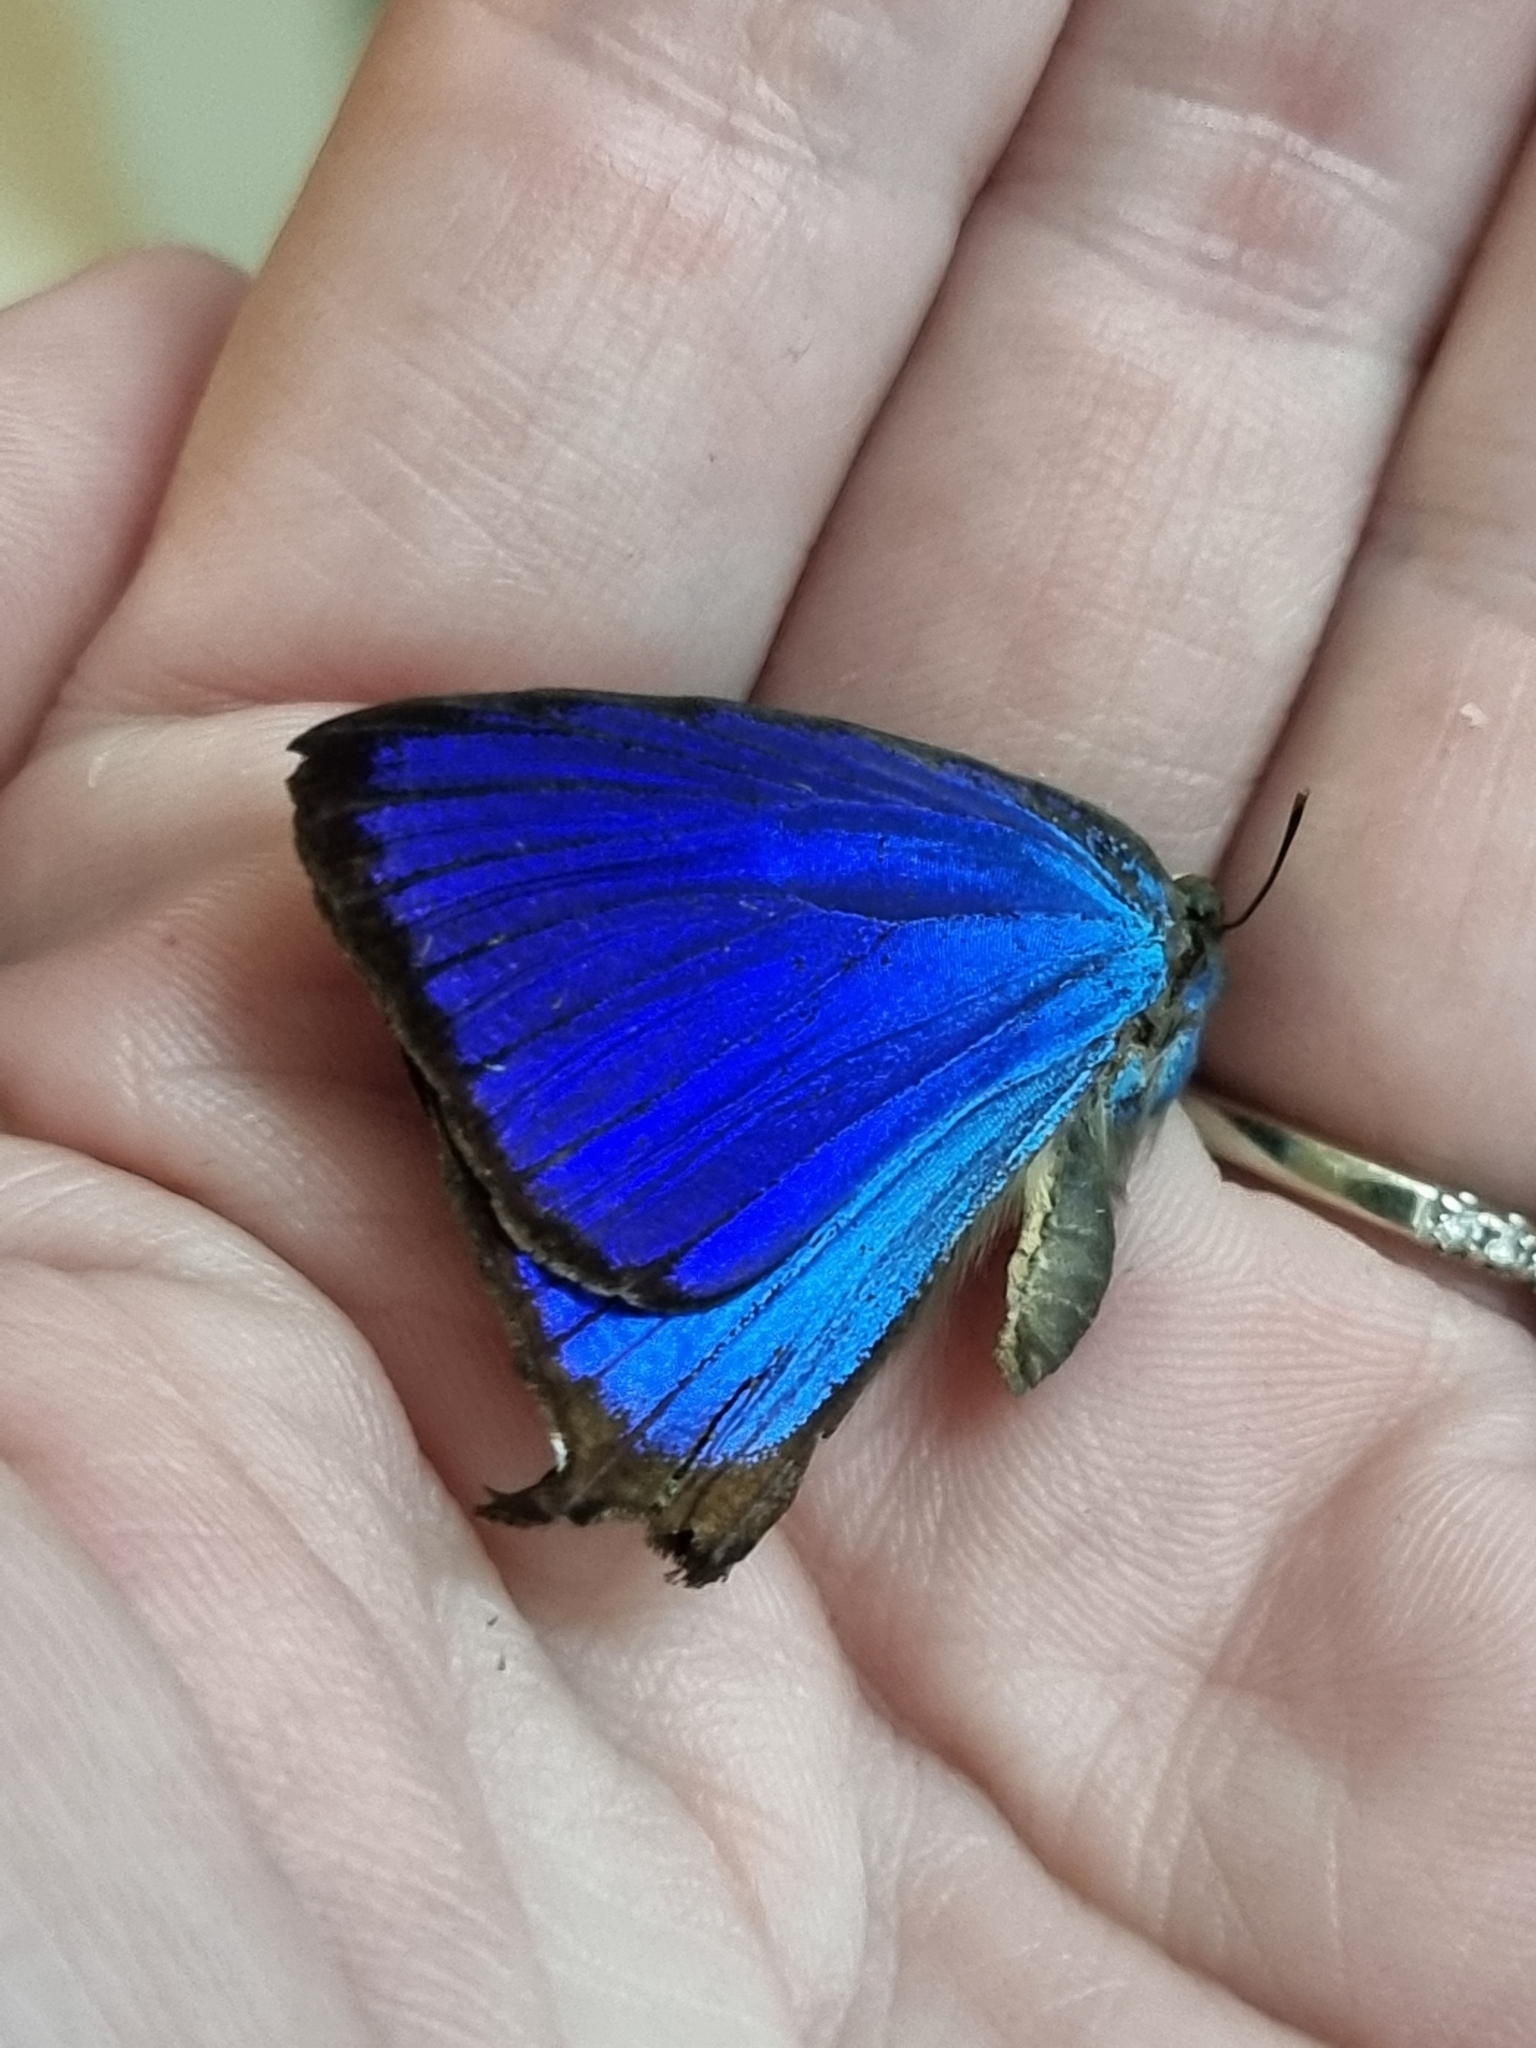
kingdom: Animalia
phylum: Arthropoda
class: Insecta
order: Lepidoptera
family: Lycaenidae
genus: Arhopala
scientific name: Arhopala micale
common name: Shining oak-blue
